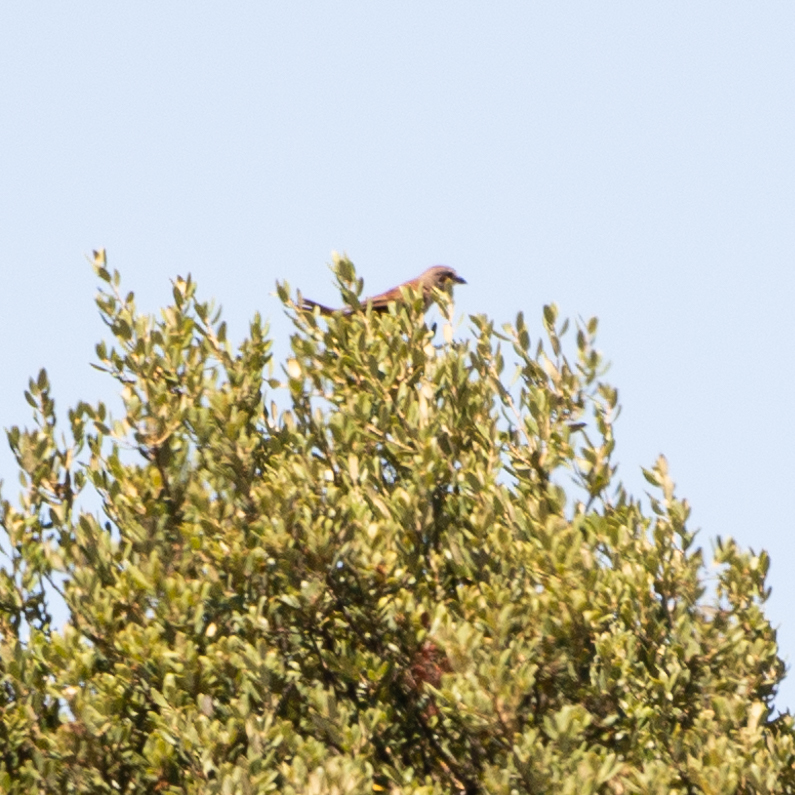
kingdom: Animalia
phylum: Chordata
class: Aves
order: Passeriformes
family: Laniidae
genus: Lanius
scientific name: Lanius collurio
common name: Red-backed shrike
